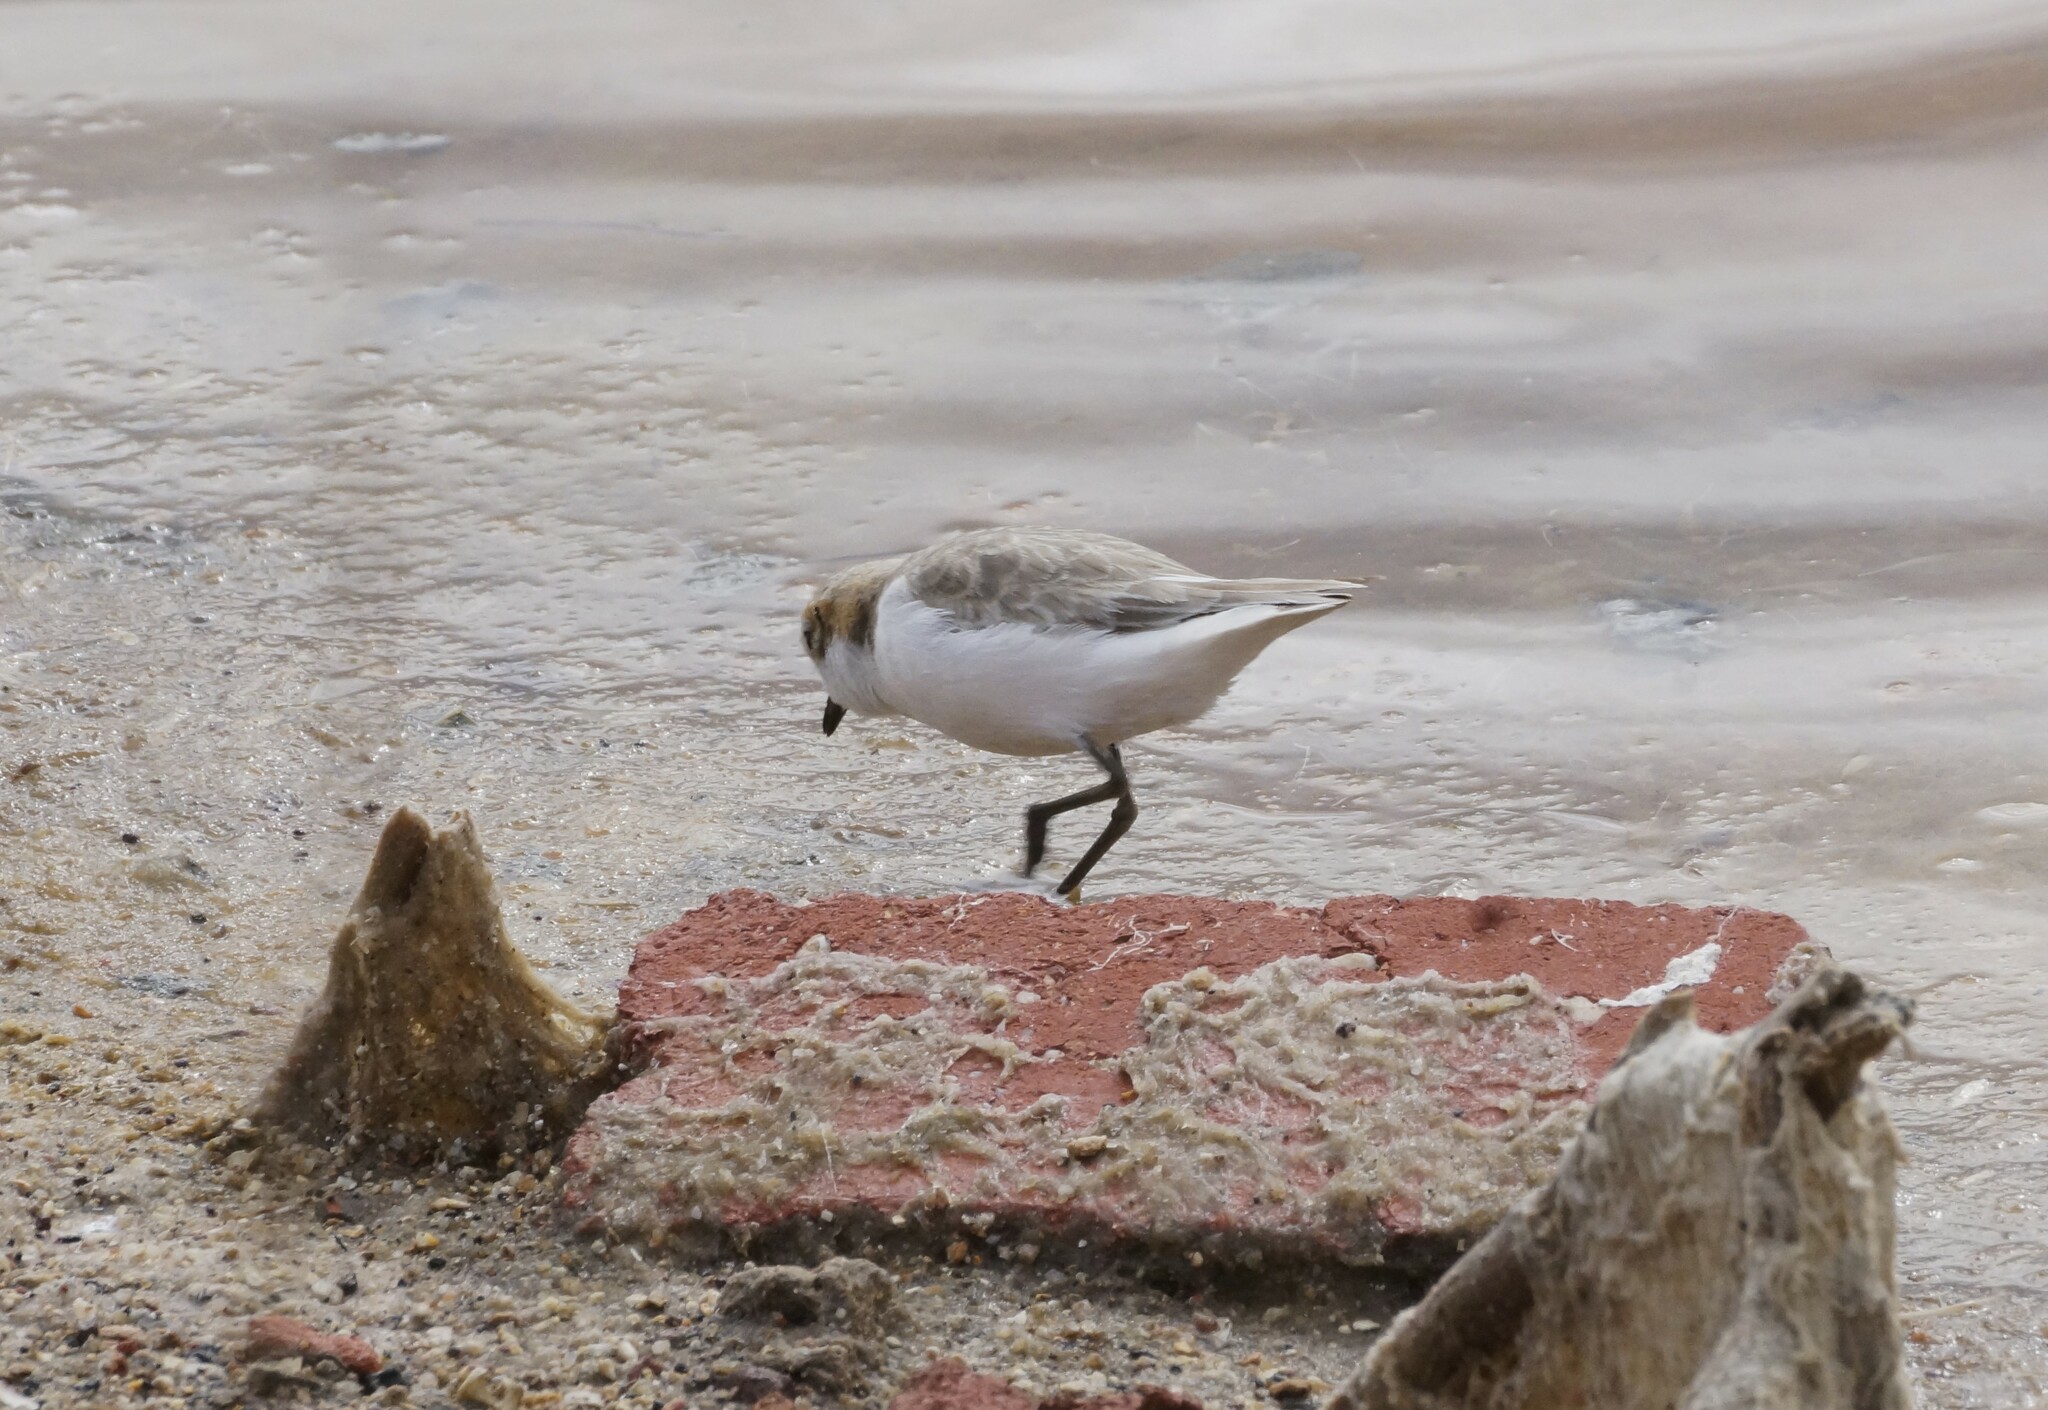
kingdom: Animalia
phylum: Chordata
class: Aves
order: Charadriiformes
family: Charadriidae
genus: Anarhynchus
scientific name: Anarhynchus
